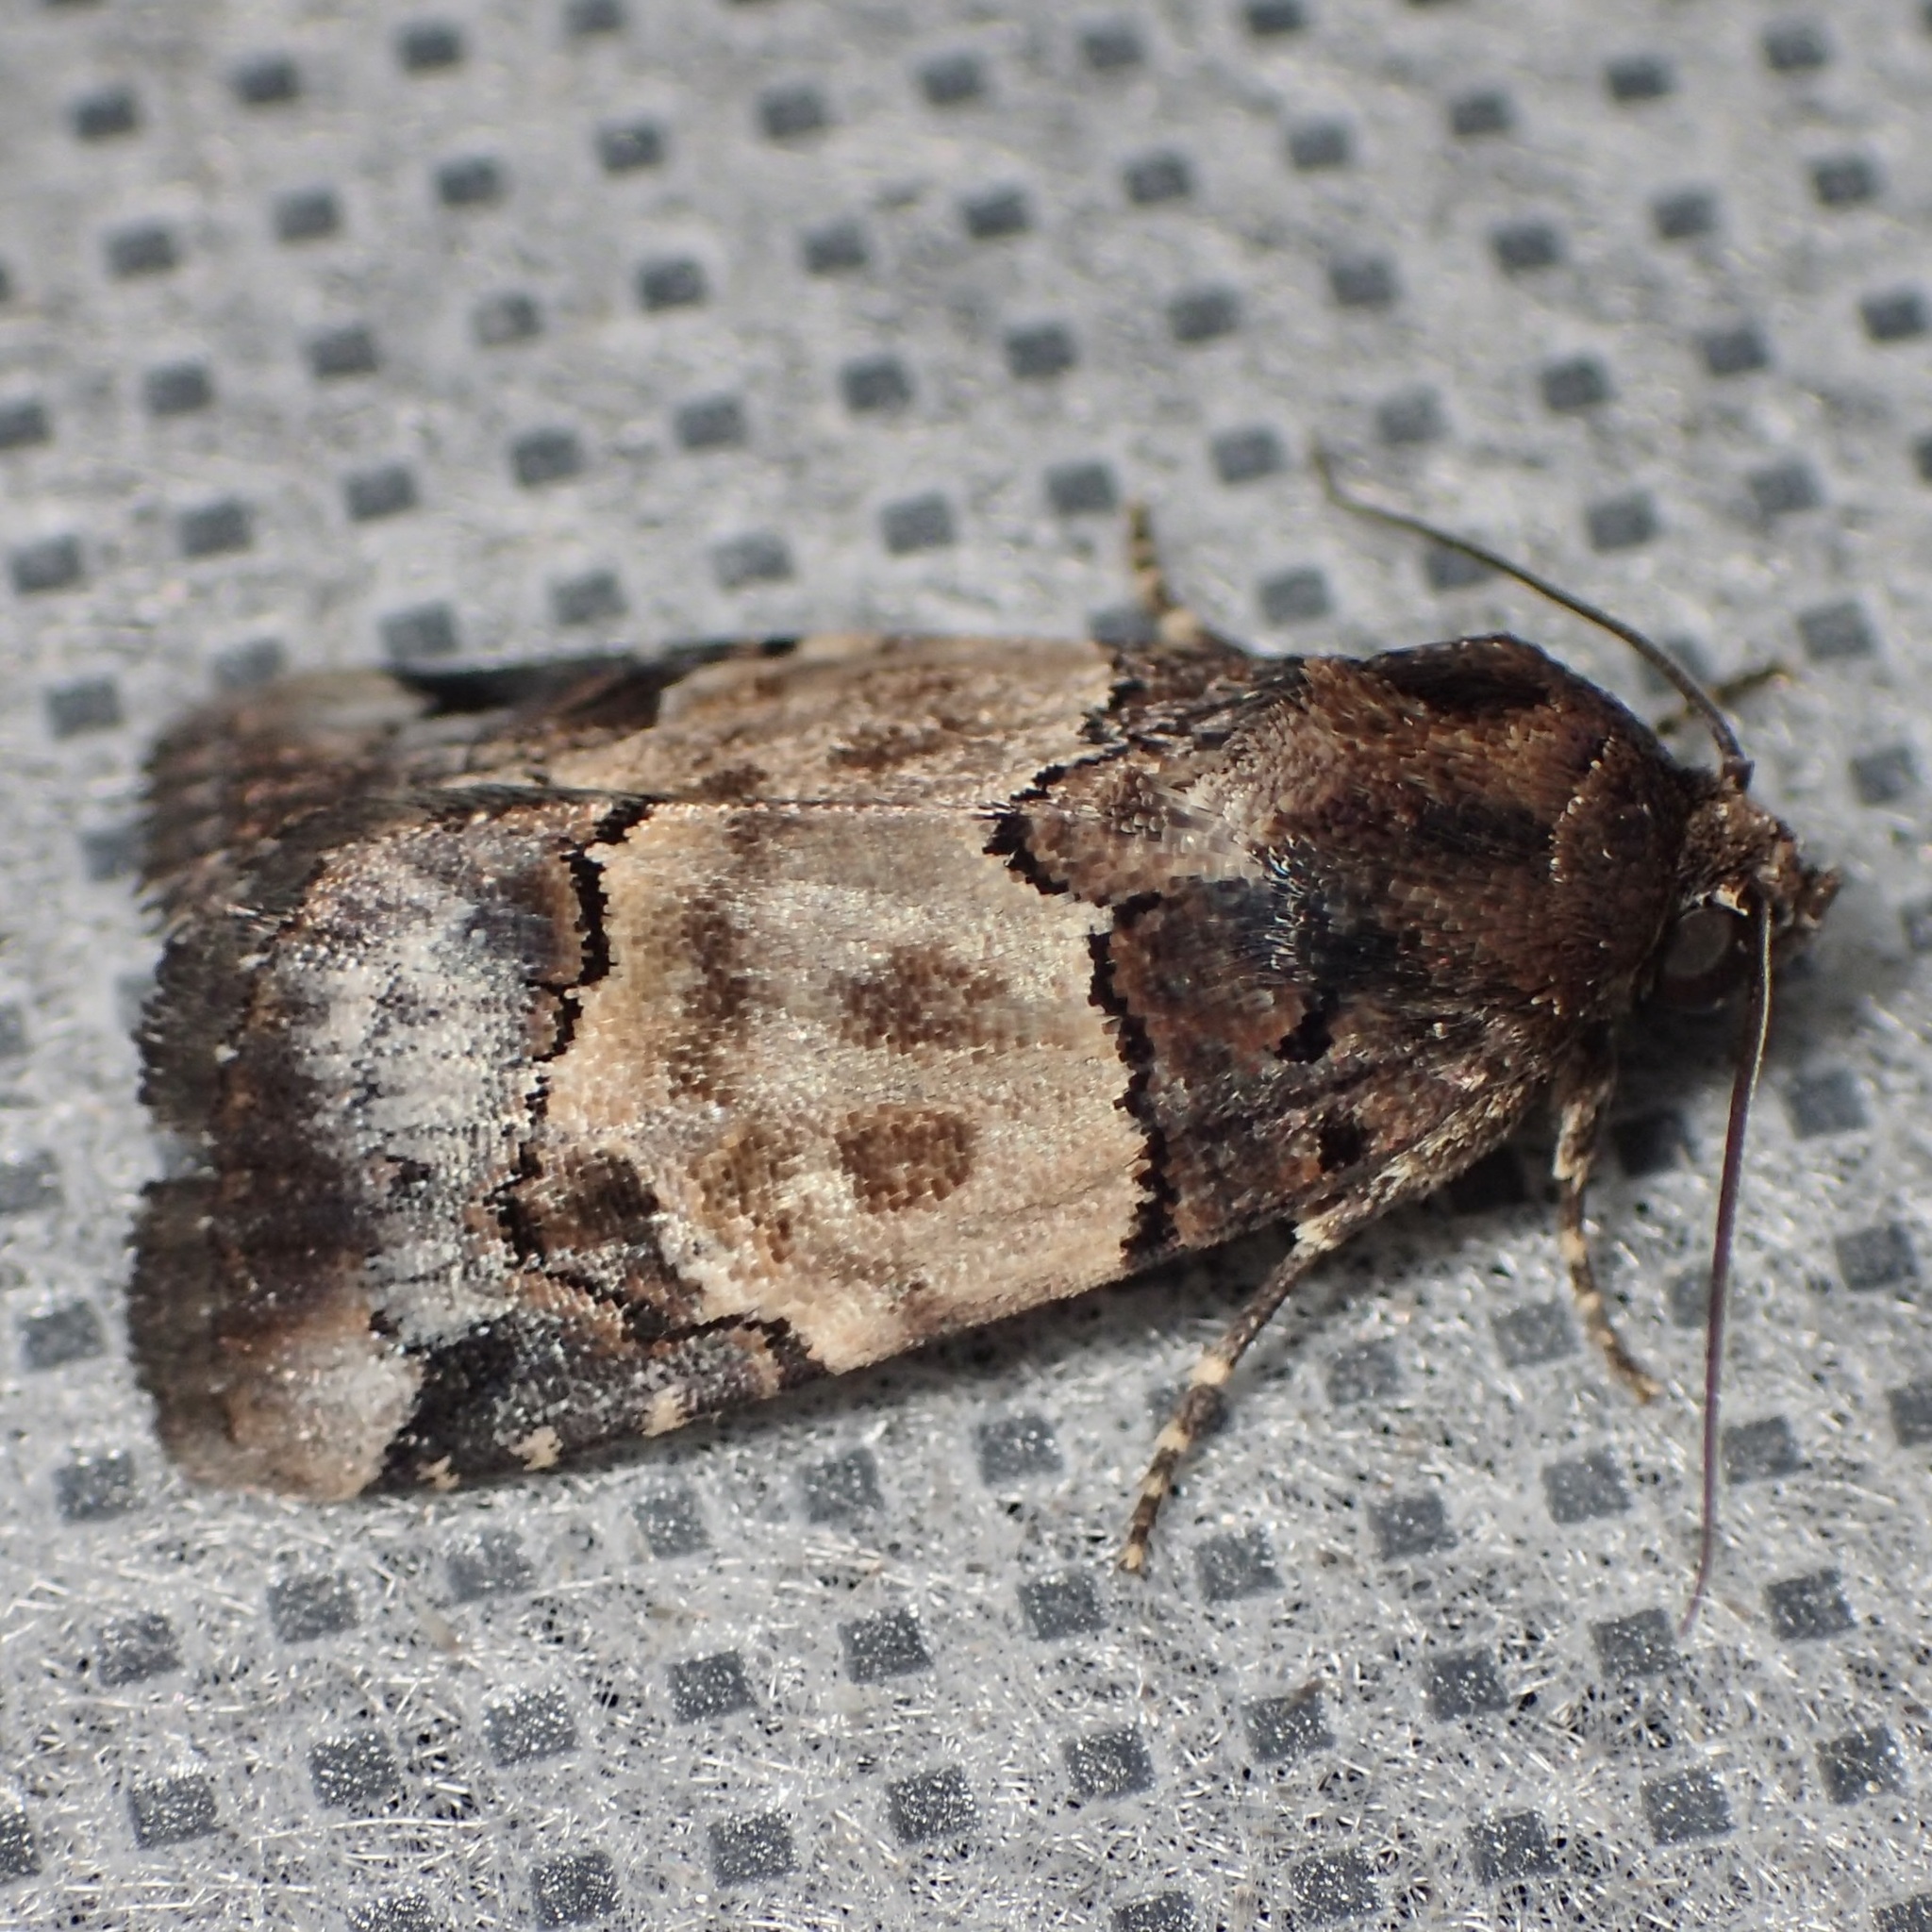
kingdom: Animalia
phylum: Arthropoda
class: Insecta
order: Lepidoptera
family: Noctuidae
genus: Bryolymnia
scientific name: Bryolymnia biformata
